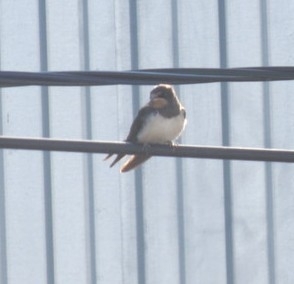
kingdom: Animalia
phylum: Chordata
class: Aves
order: Passeriformes
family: Hirundinidae
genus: Hirundo
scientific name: Hirundo rustica
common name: Barn swallow
